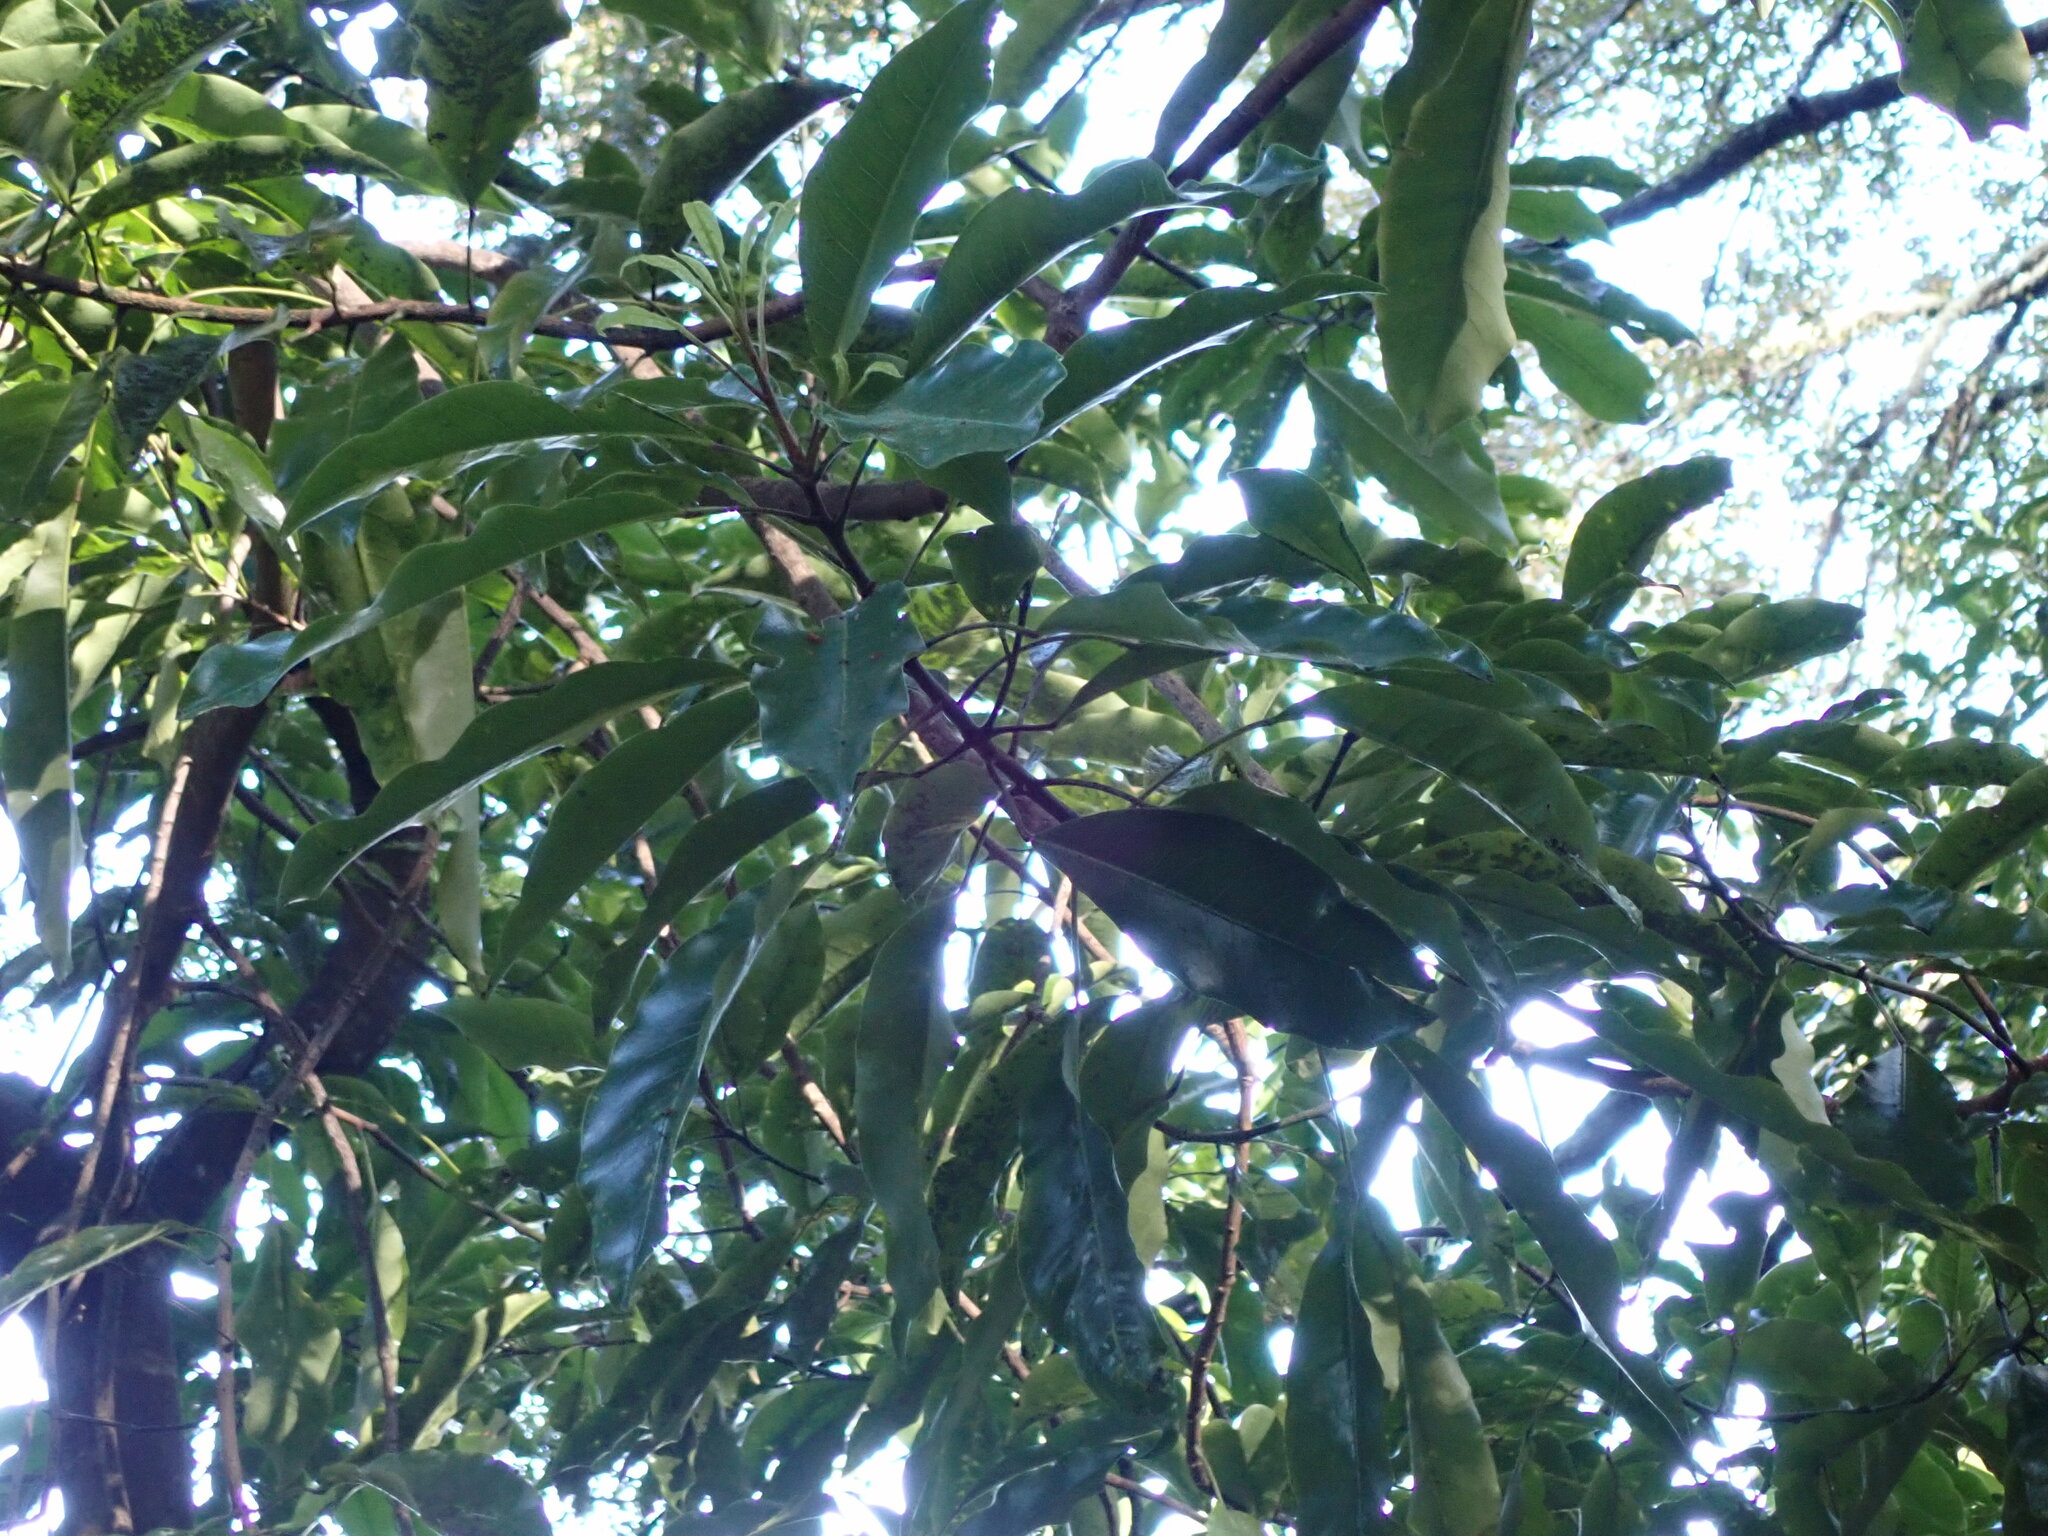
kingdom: Plantae
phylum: Tracheophyta
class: Magnoliopsida
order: Apiales
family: Araliaceae
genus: Raukaua
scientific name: Raukaua edgerleyi
